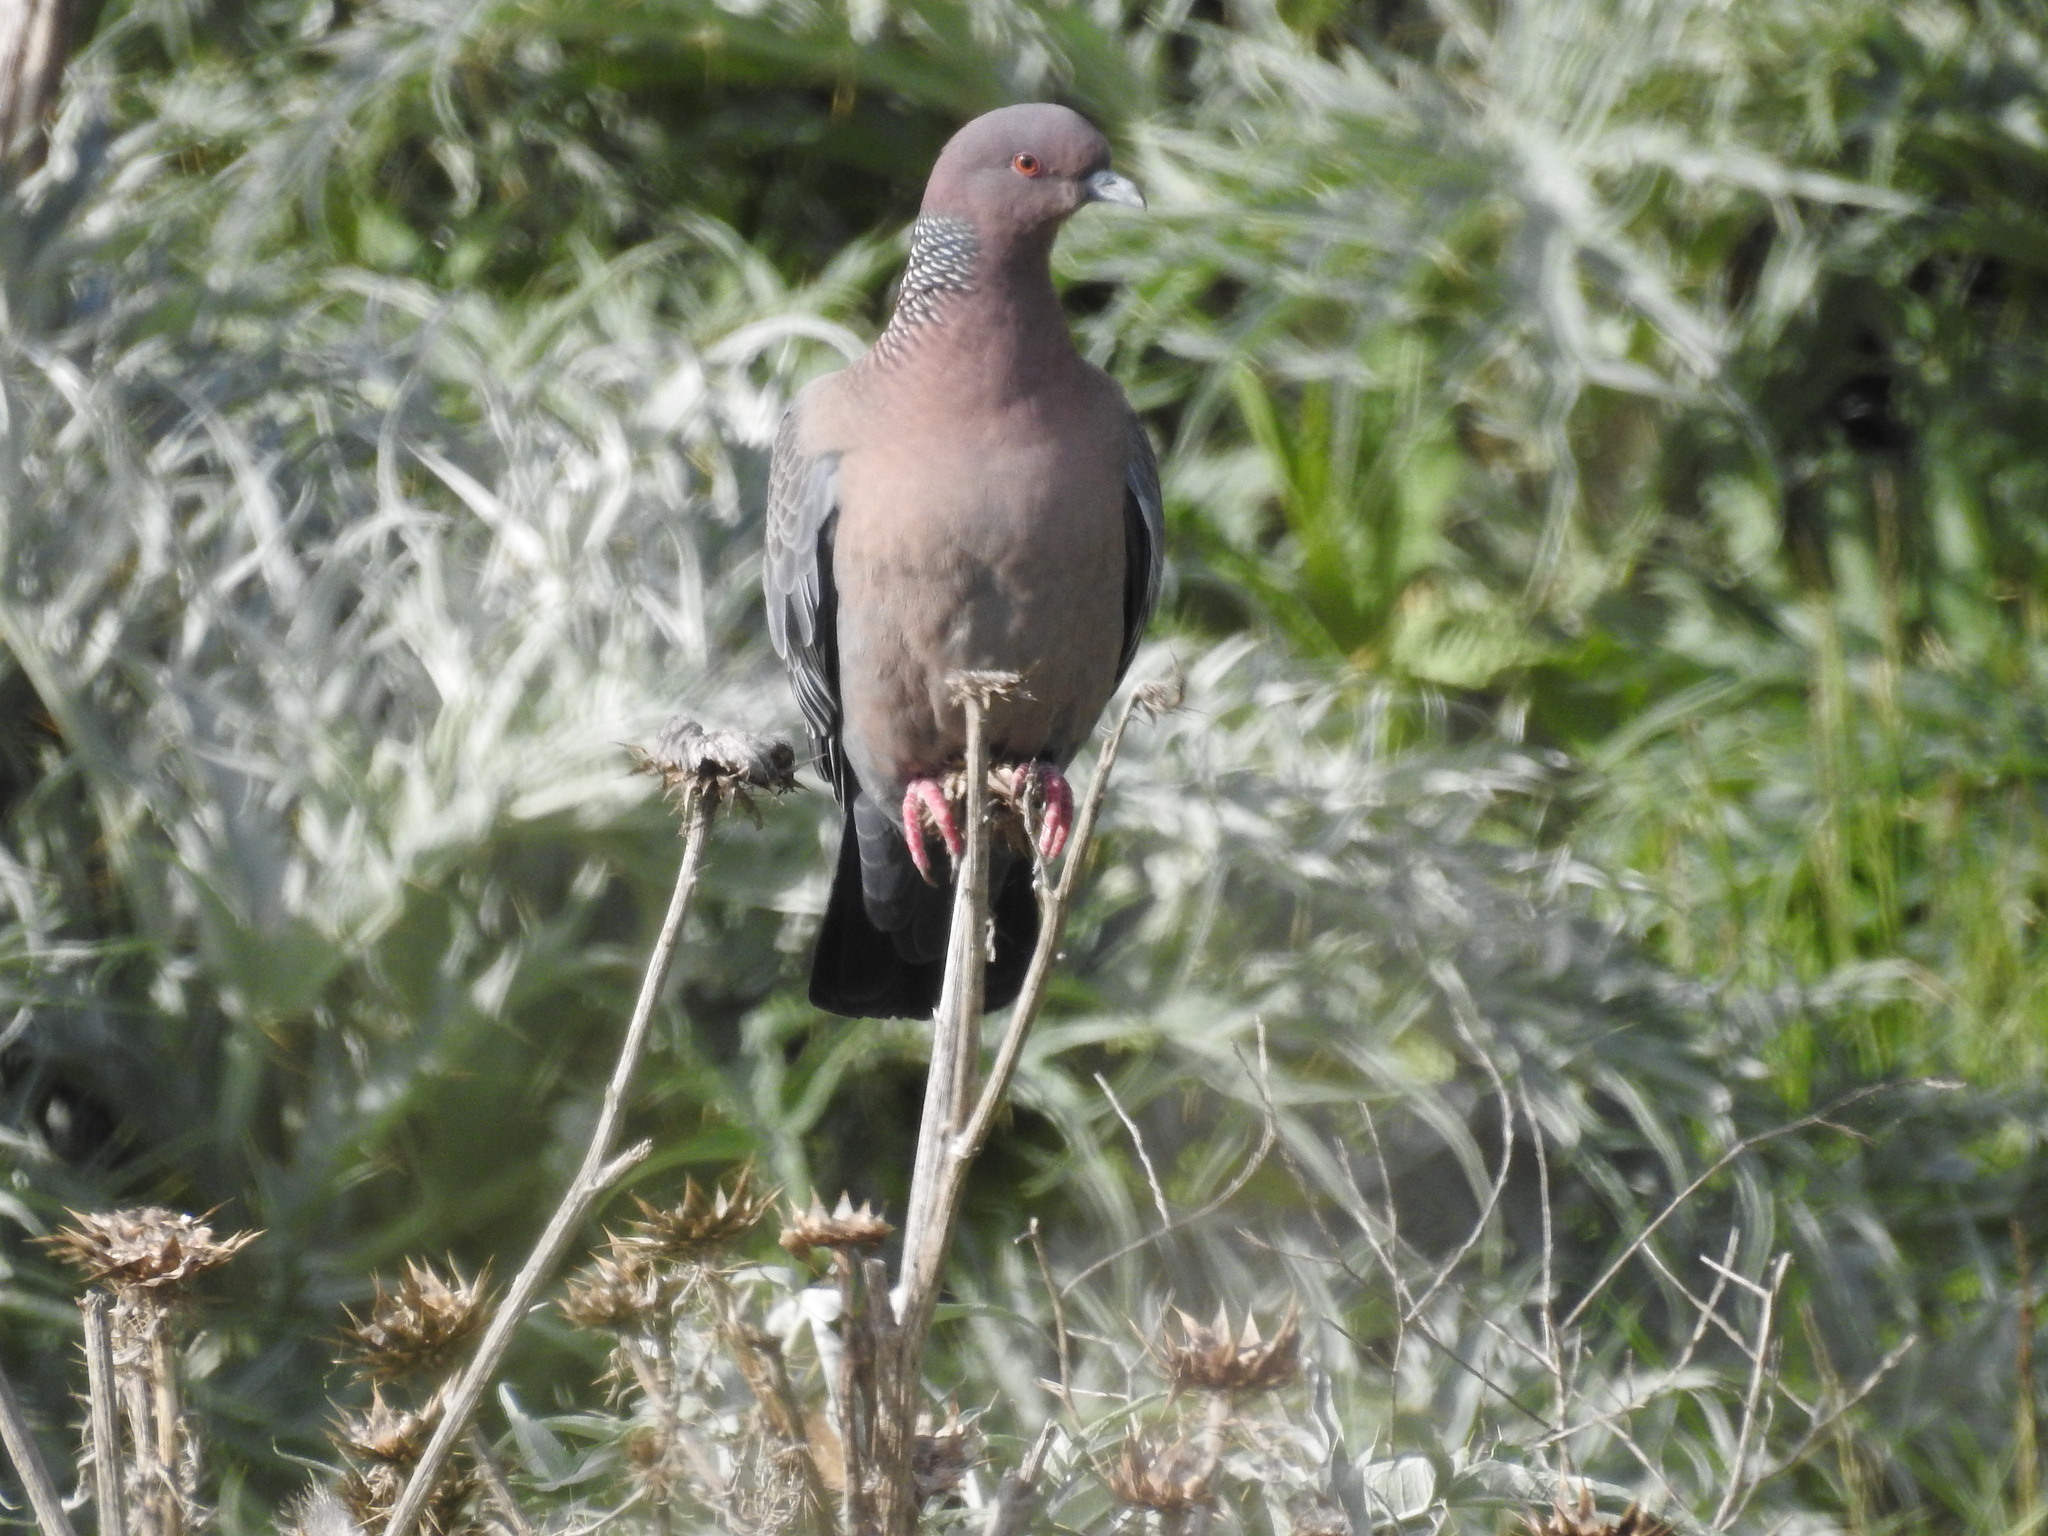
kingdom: Animalia
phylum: Chordata
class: Aves
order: Columbiformes
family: Columbidae
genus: Patagioenas
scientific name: Patagioenas picazuro
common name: Picazuro pigeon
